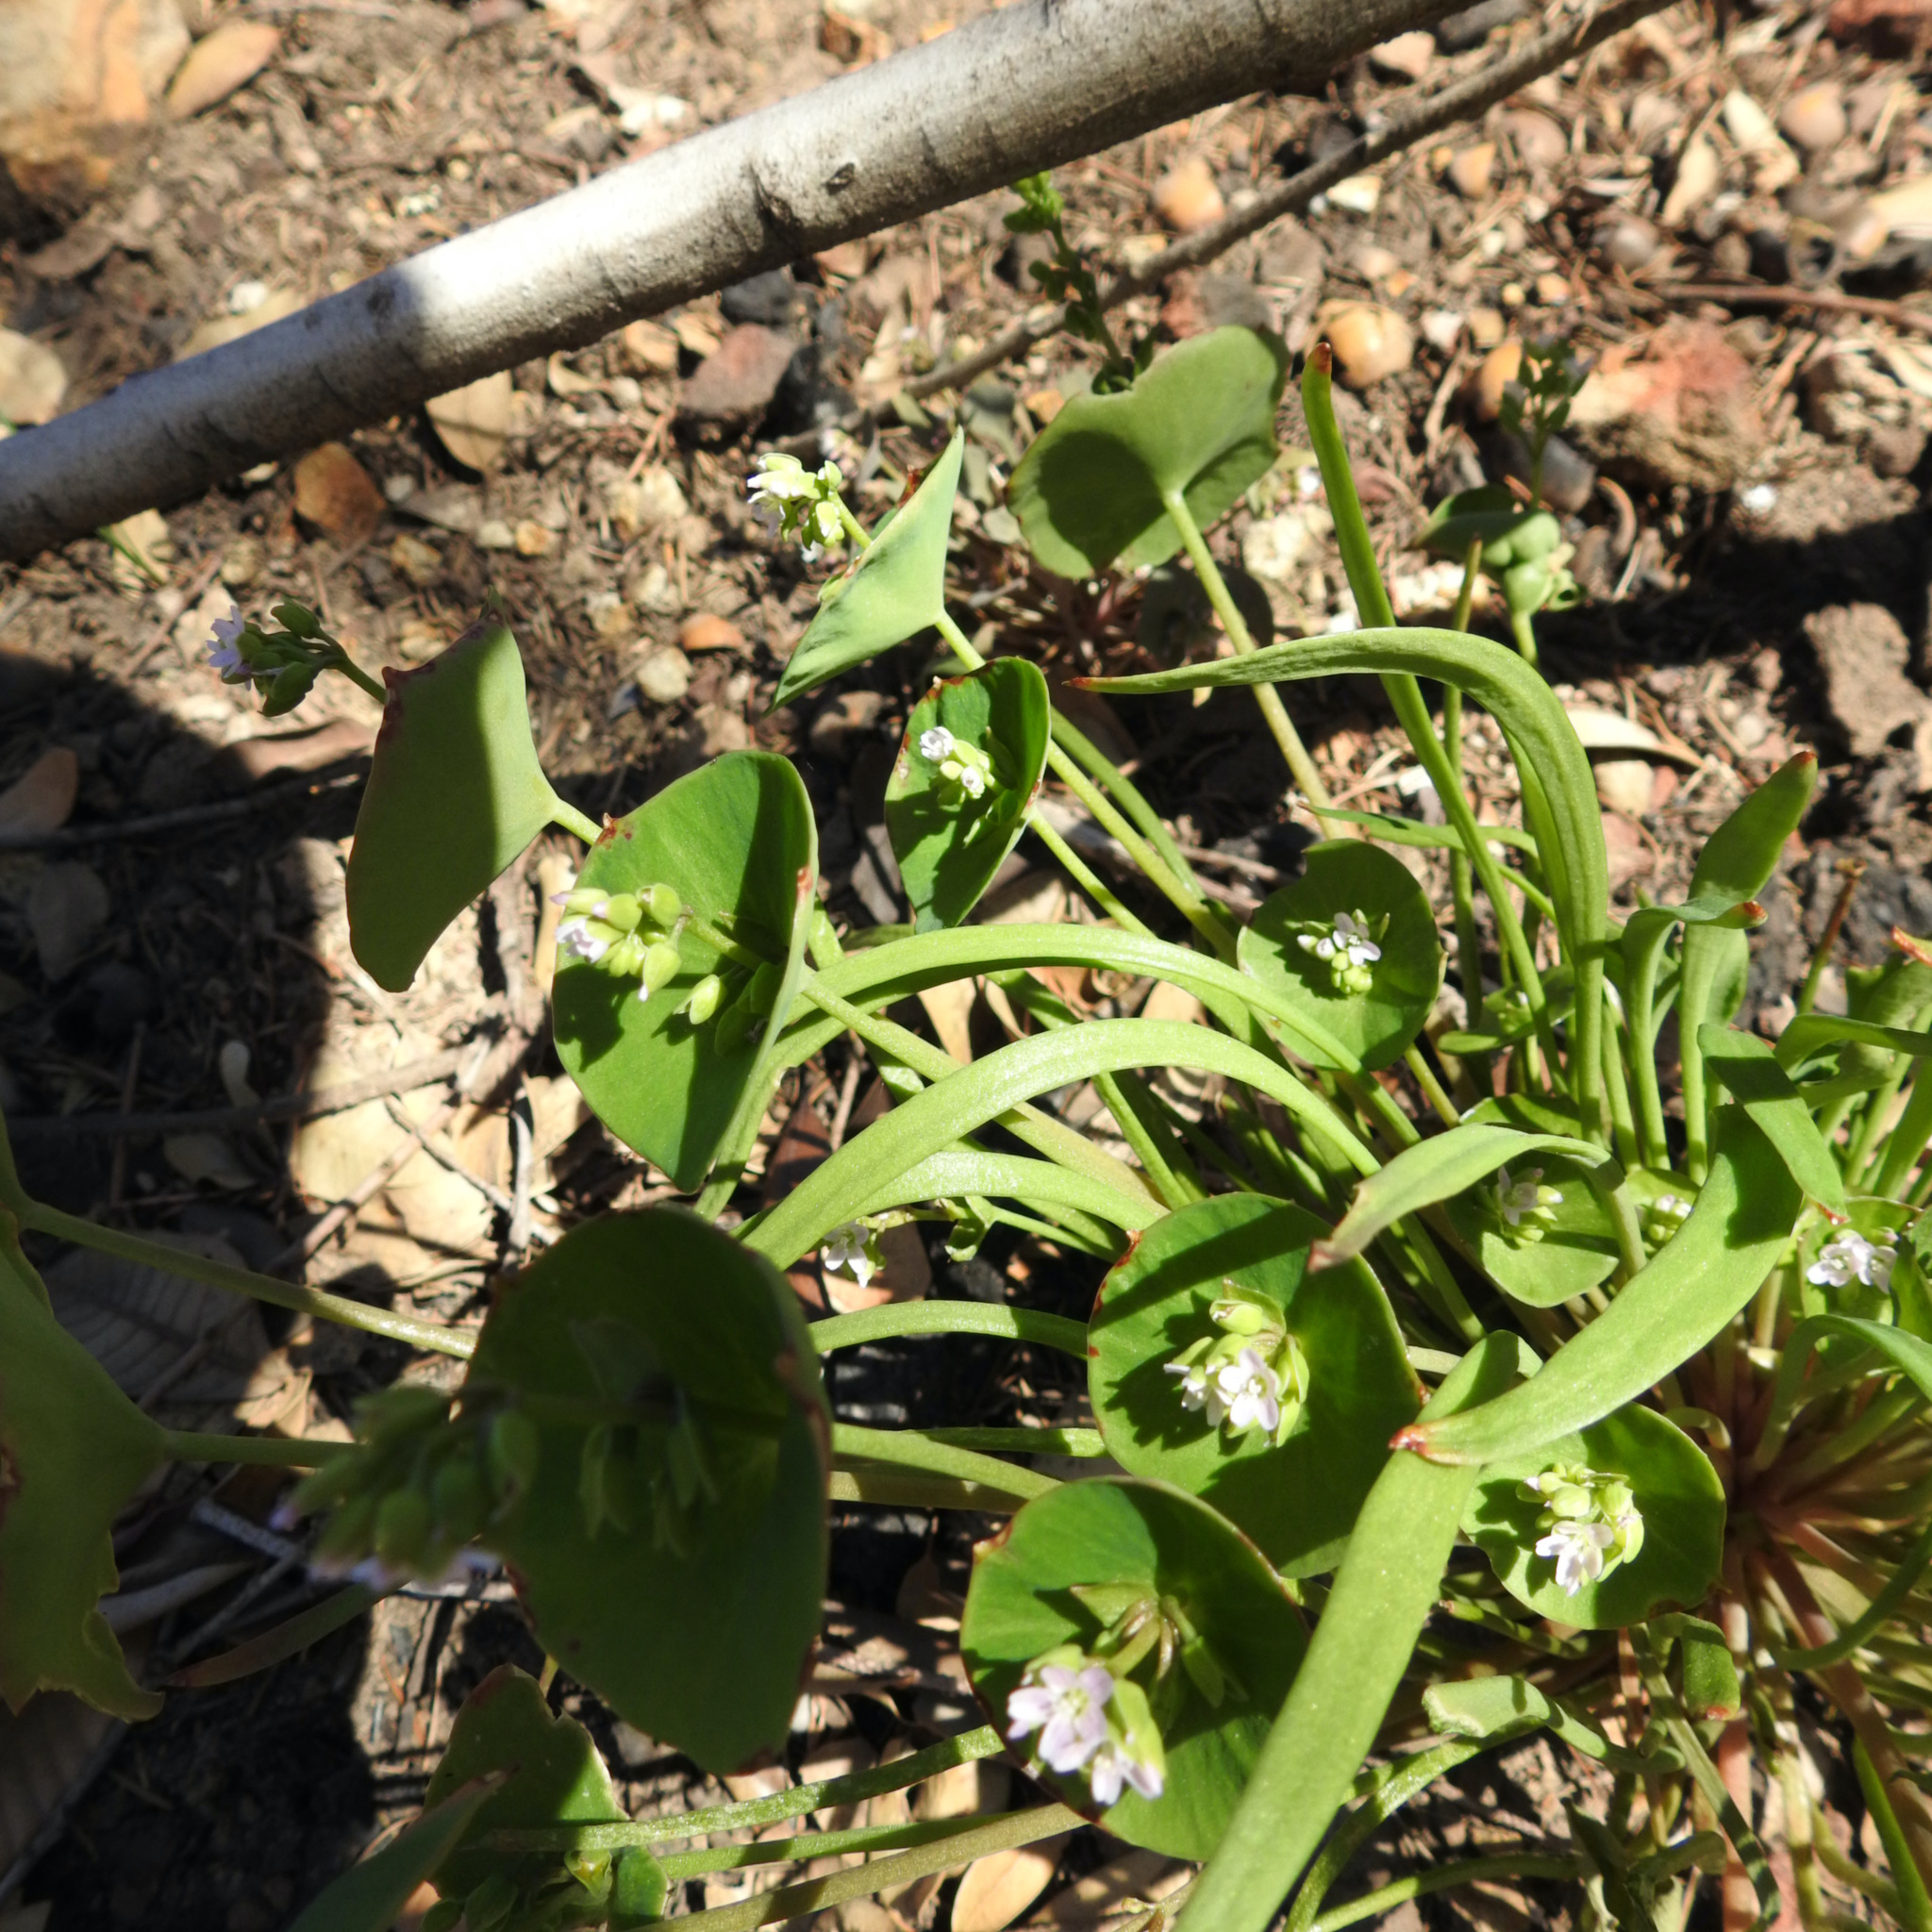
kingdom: Plantae
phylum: Tracheophyta
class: Magnoliopsida
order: Caryophyllales
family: Montiaceae
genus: Claytonia
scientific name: Claytonia parviflora
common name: Indian-lettuce
